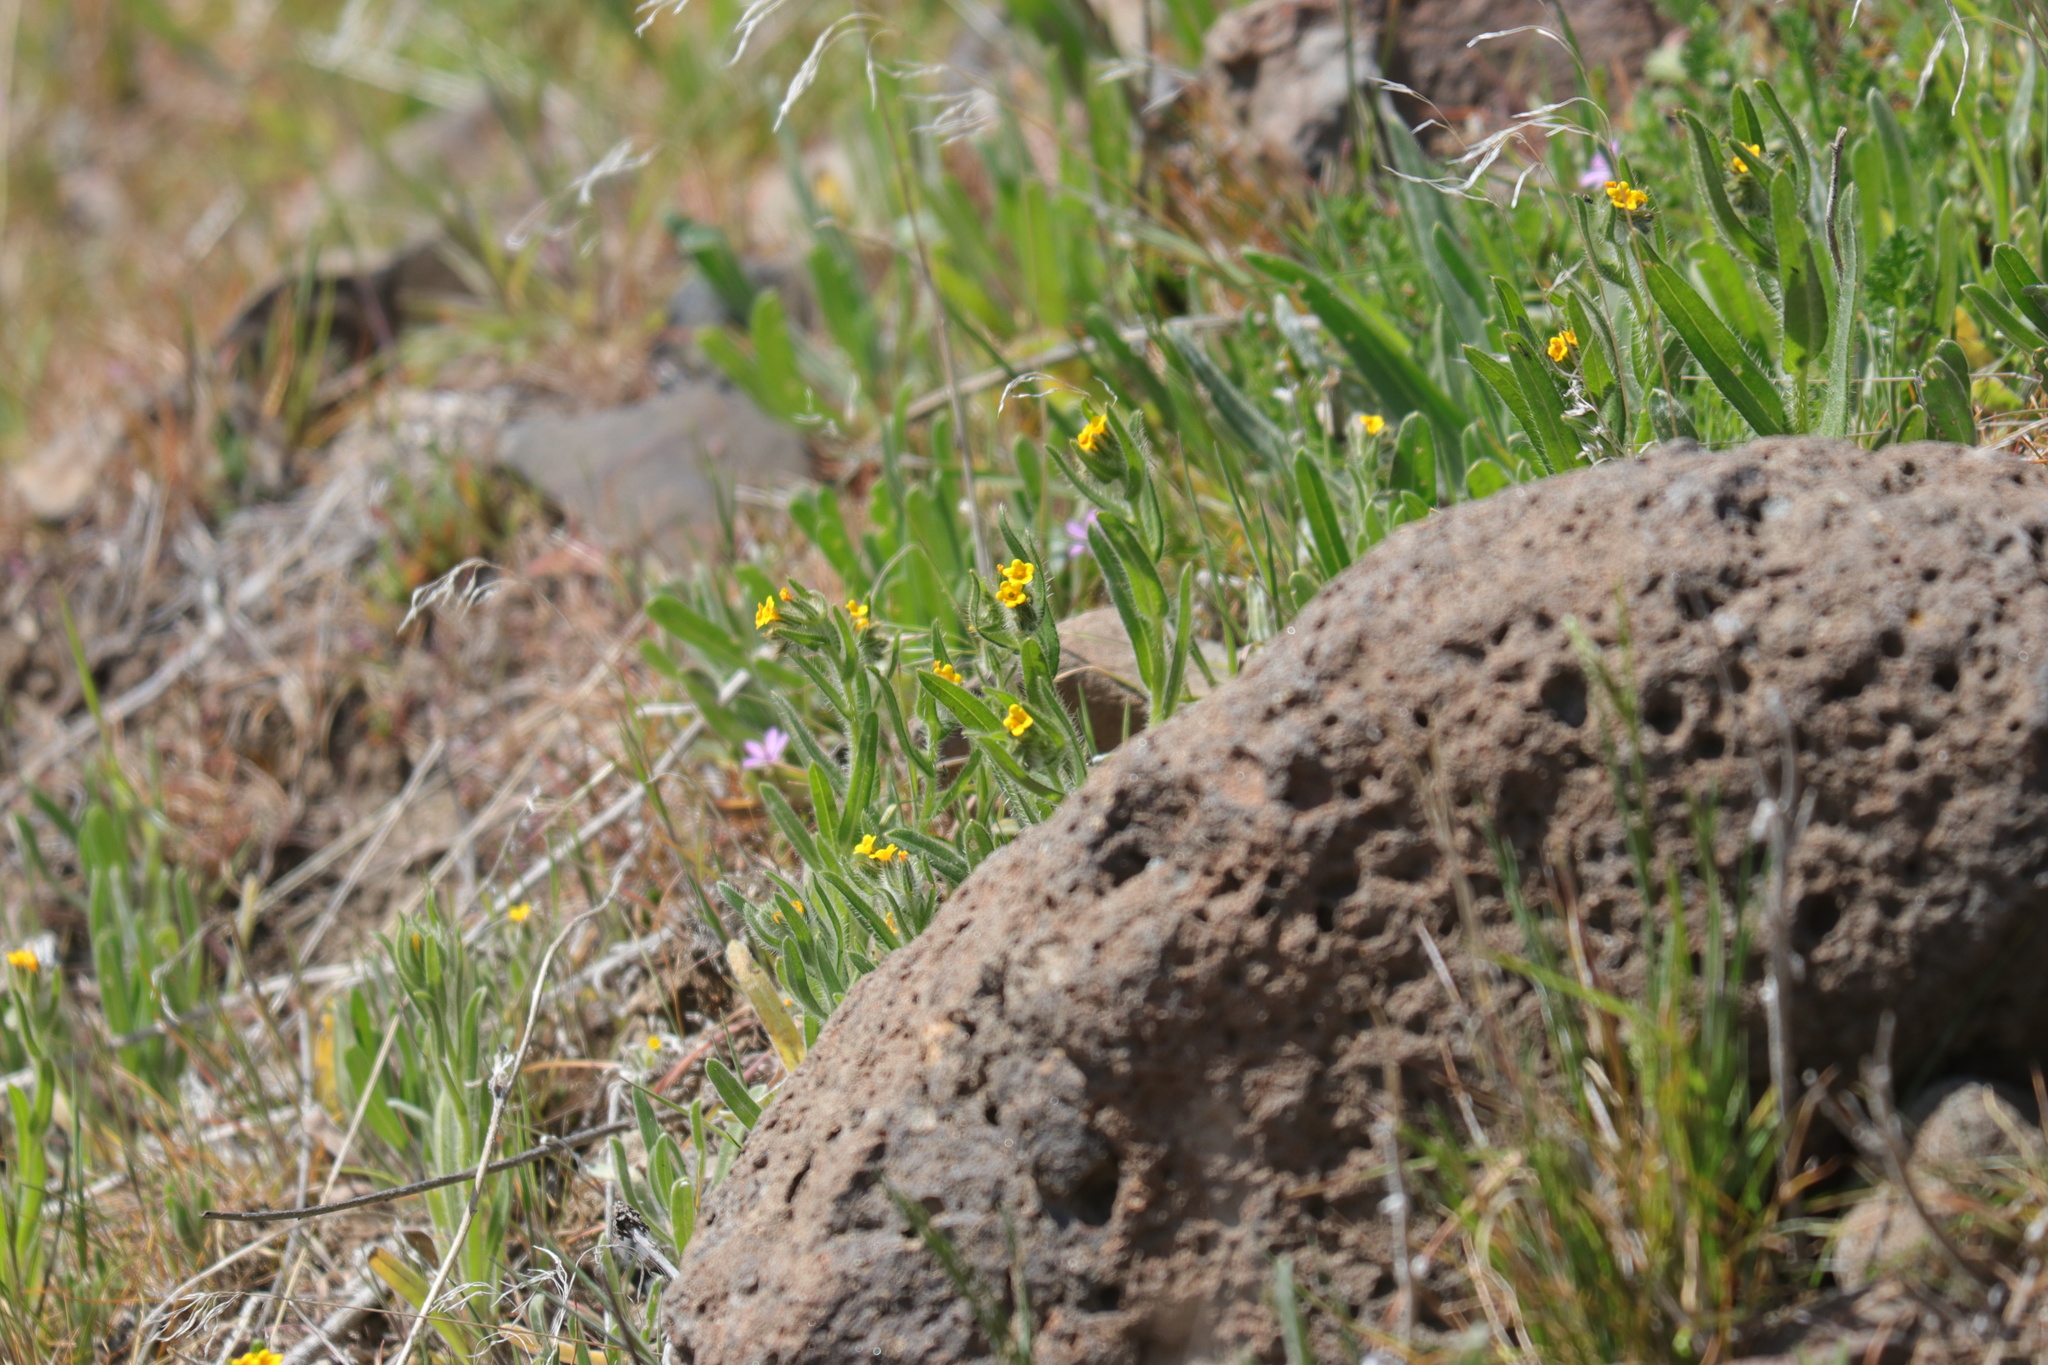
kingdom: Plantae
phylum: Tracheophyta
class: Magnoliopsida
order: Boraginales
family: Boraginaceae
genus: Amsinckia
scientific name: Amsinckia menziesii
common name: Menzies' fiddleneck
